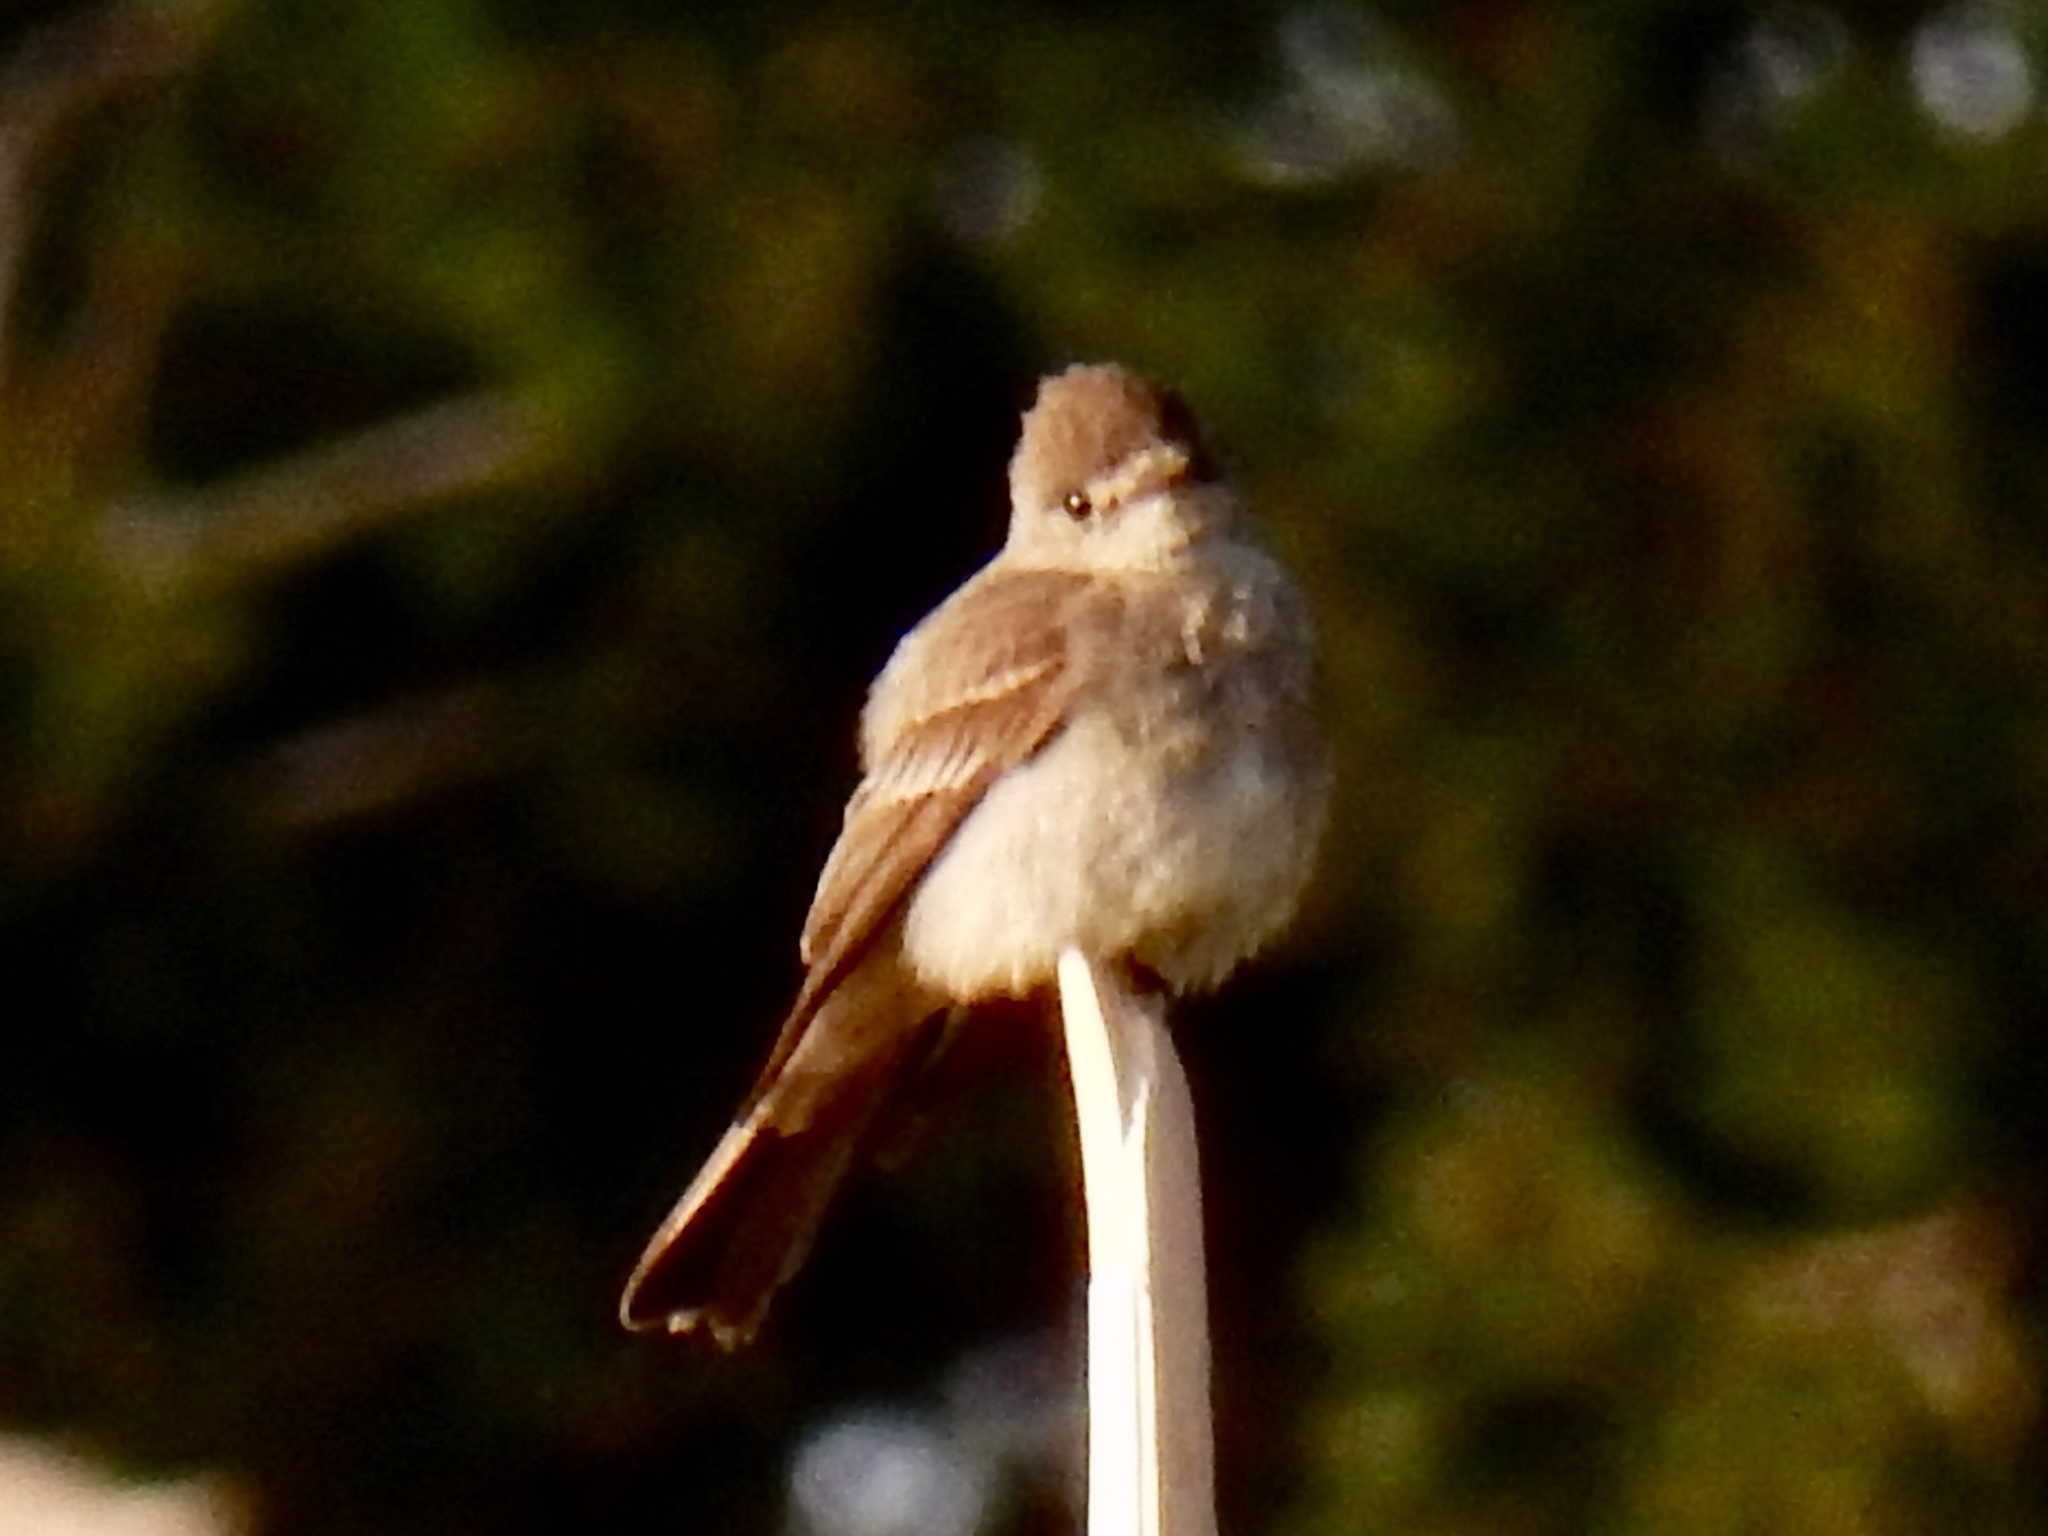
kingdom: Animalia
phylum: Chordata
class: Aves
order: Passeriformes
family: Tyrannidae
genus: Contopus
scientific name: Contopus sordidulus
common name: Western wood-pewee
